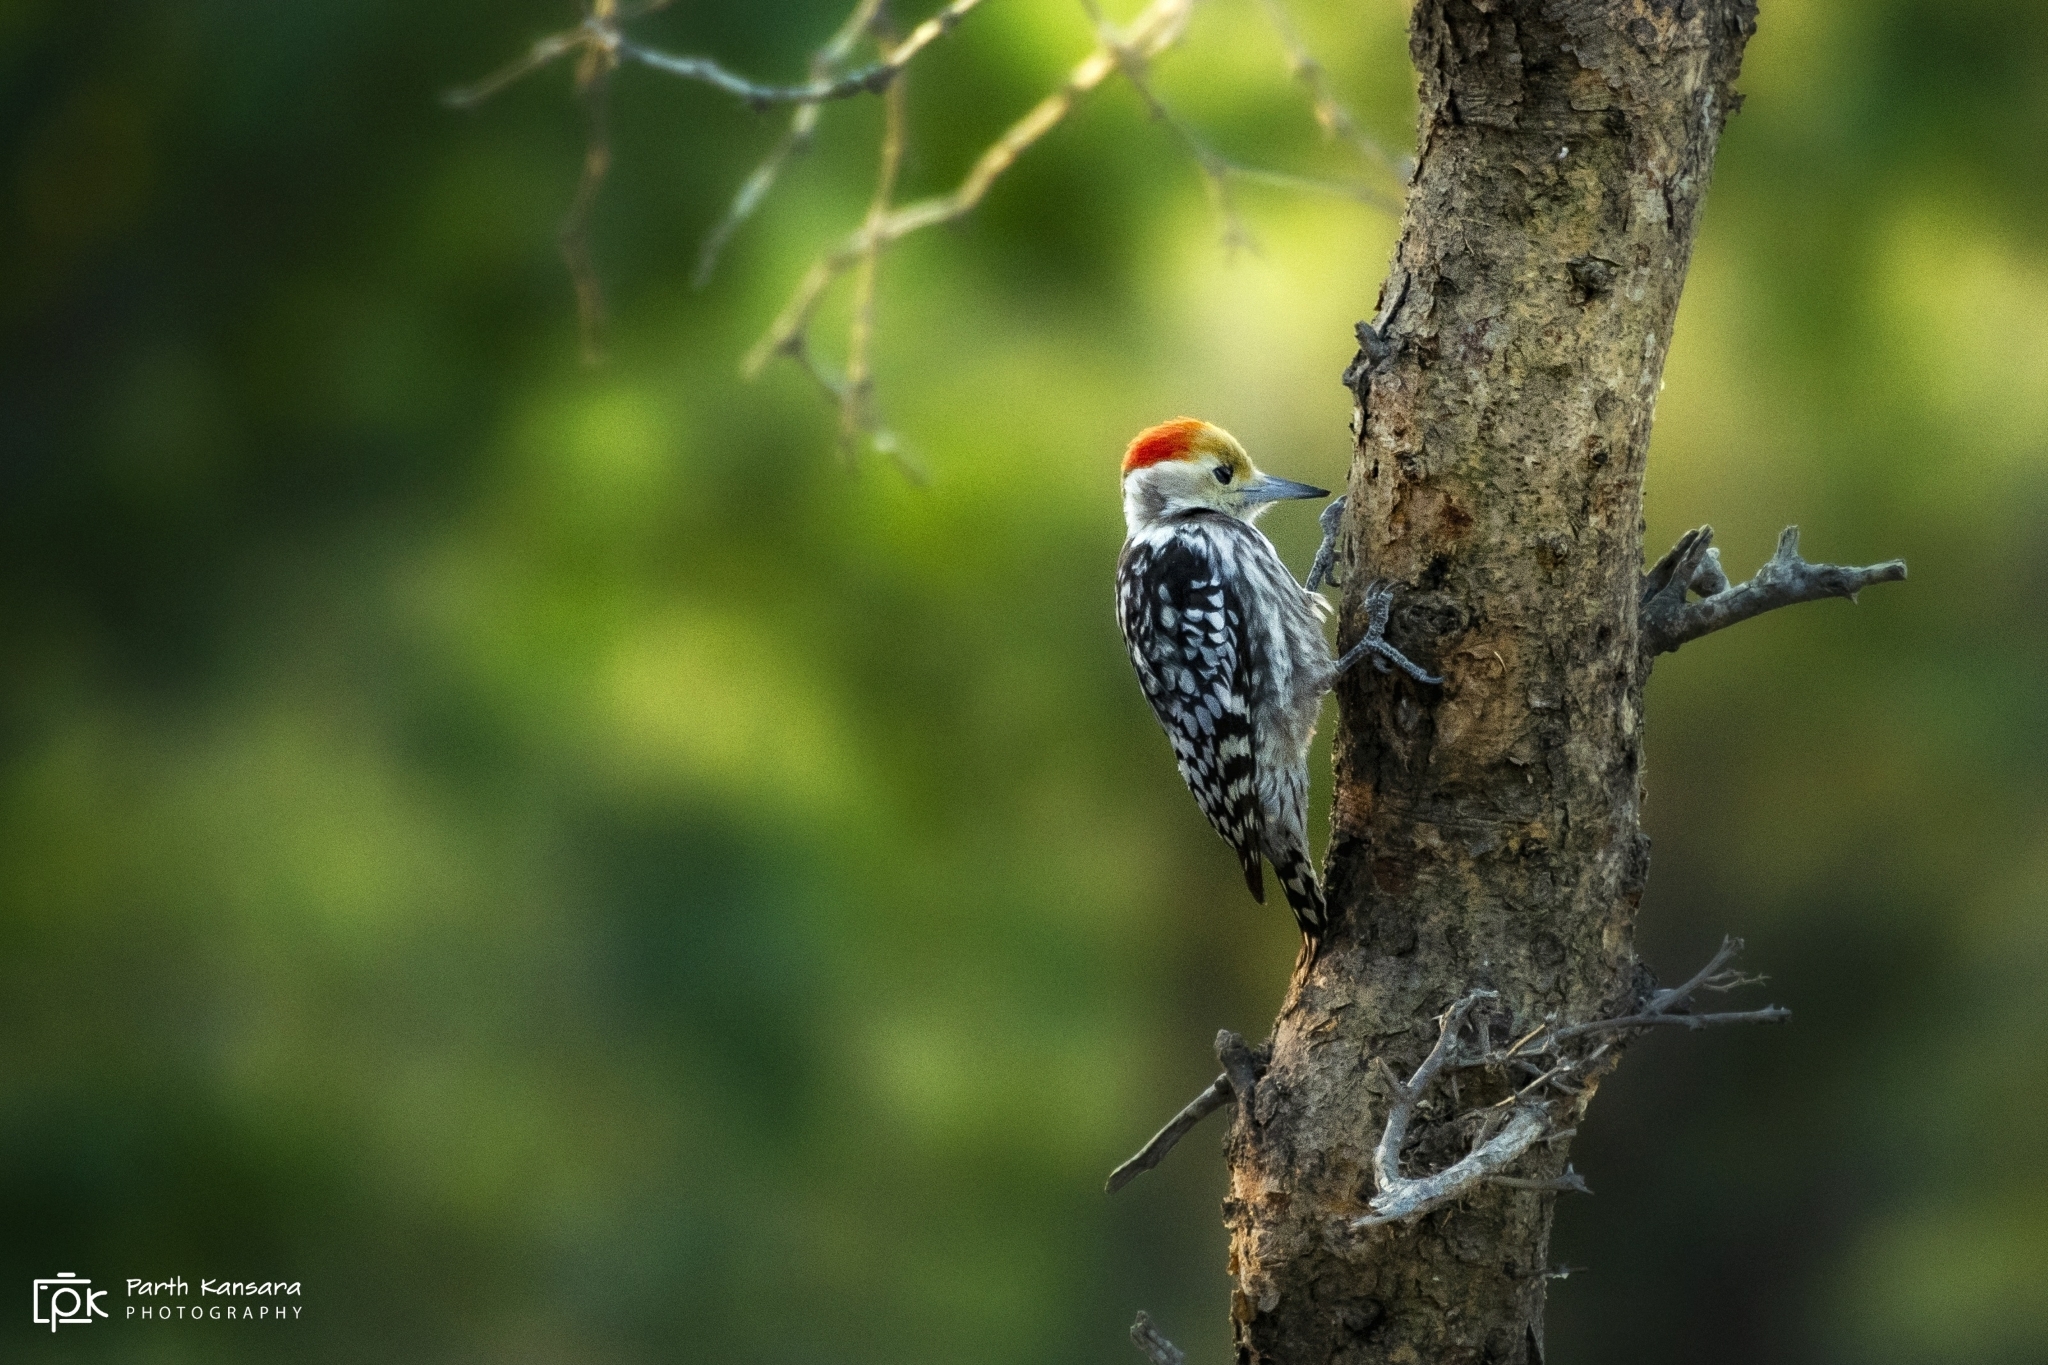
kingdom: Animalia
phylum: Chordata
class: Aves
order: Piciformes
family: Picidae
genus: Leiopicus
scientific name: Leiopicus mahrattensis
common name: Yellow-crowned woodpecker
